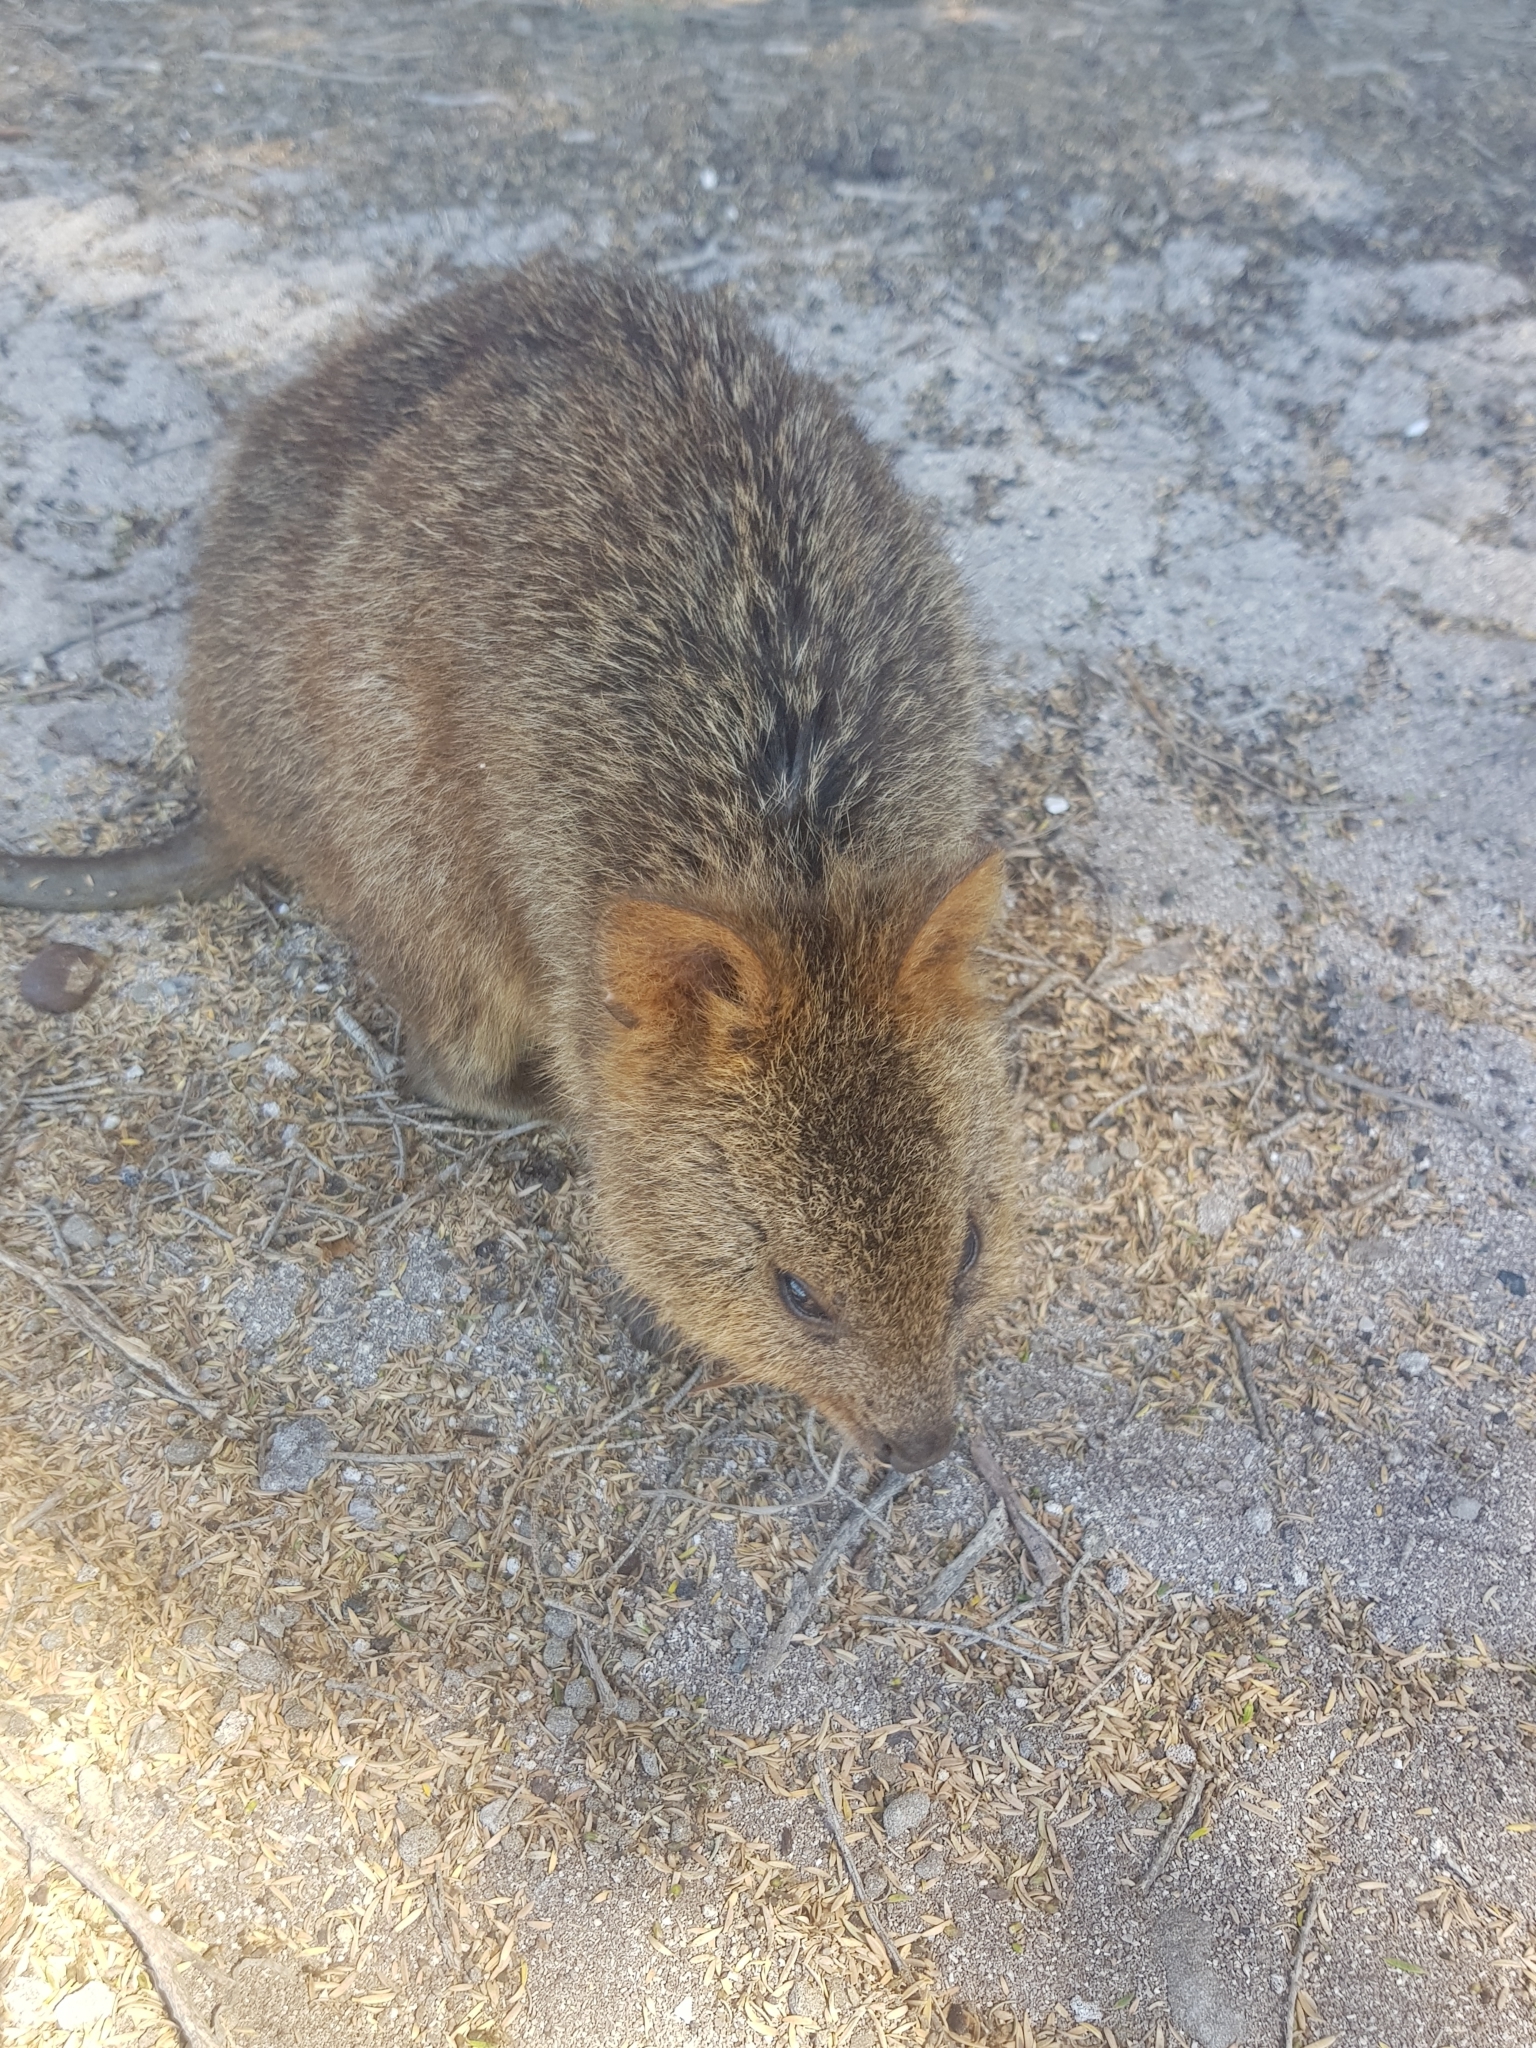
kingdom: Animalia
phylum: Chordata
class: Mammalia
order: Diprotodontia
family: Macropodidae
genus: Setonix
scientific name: Setonix brachyurus
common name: Quokka
